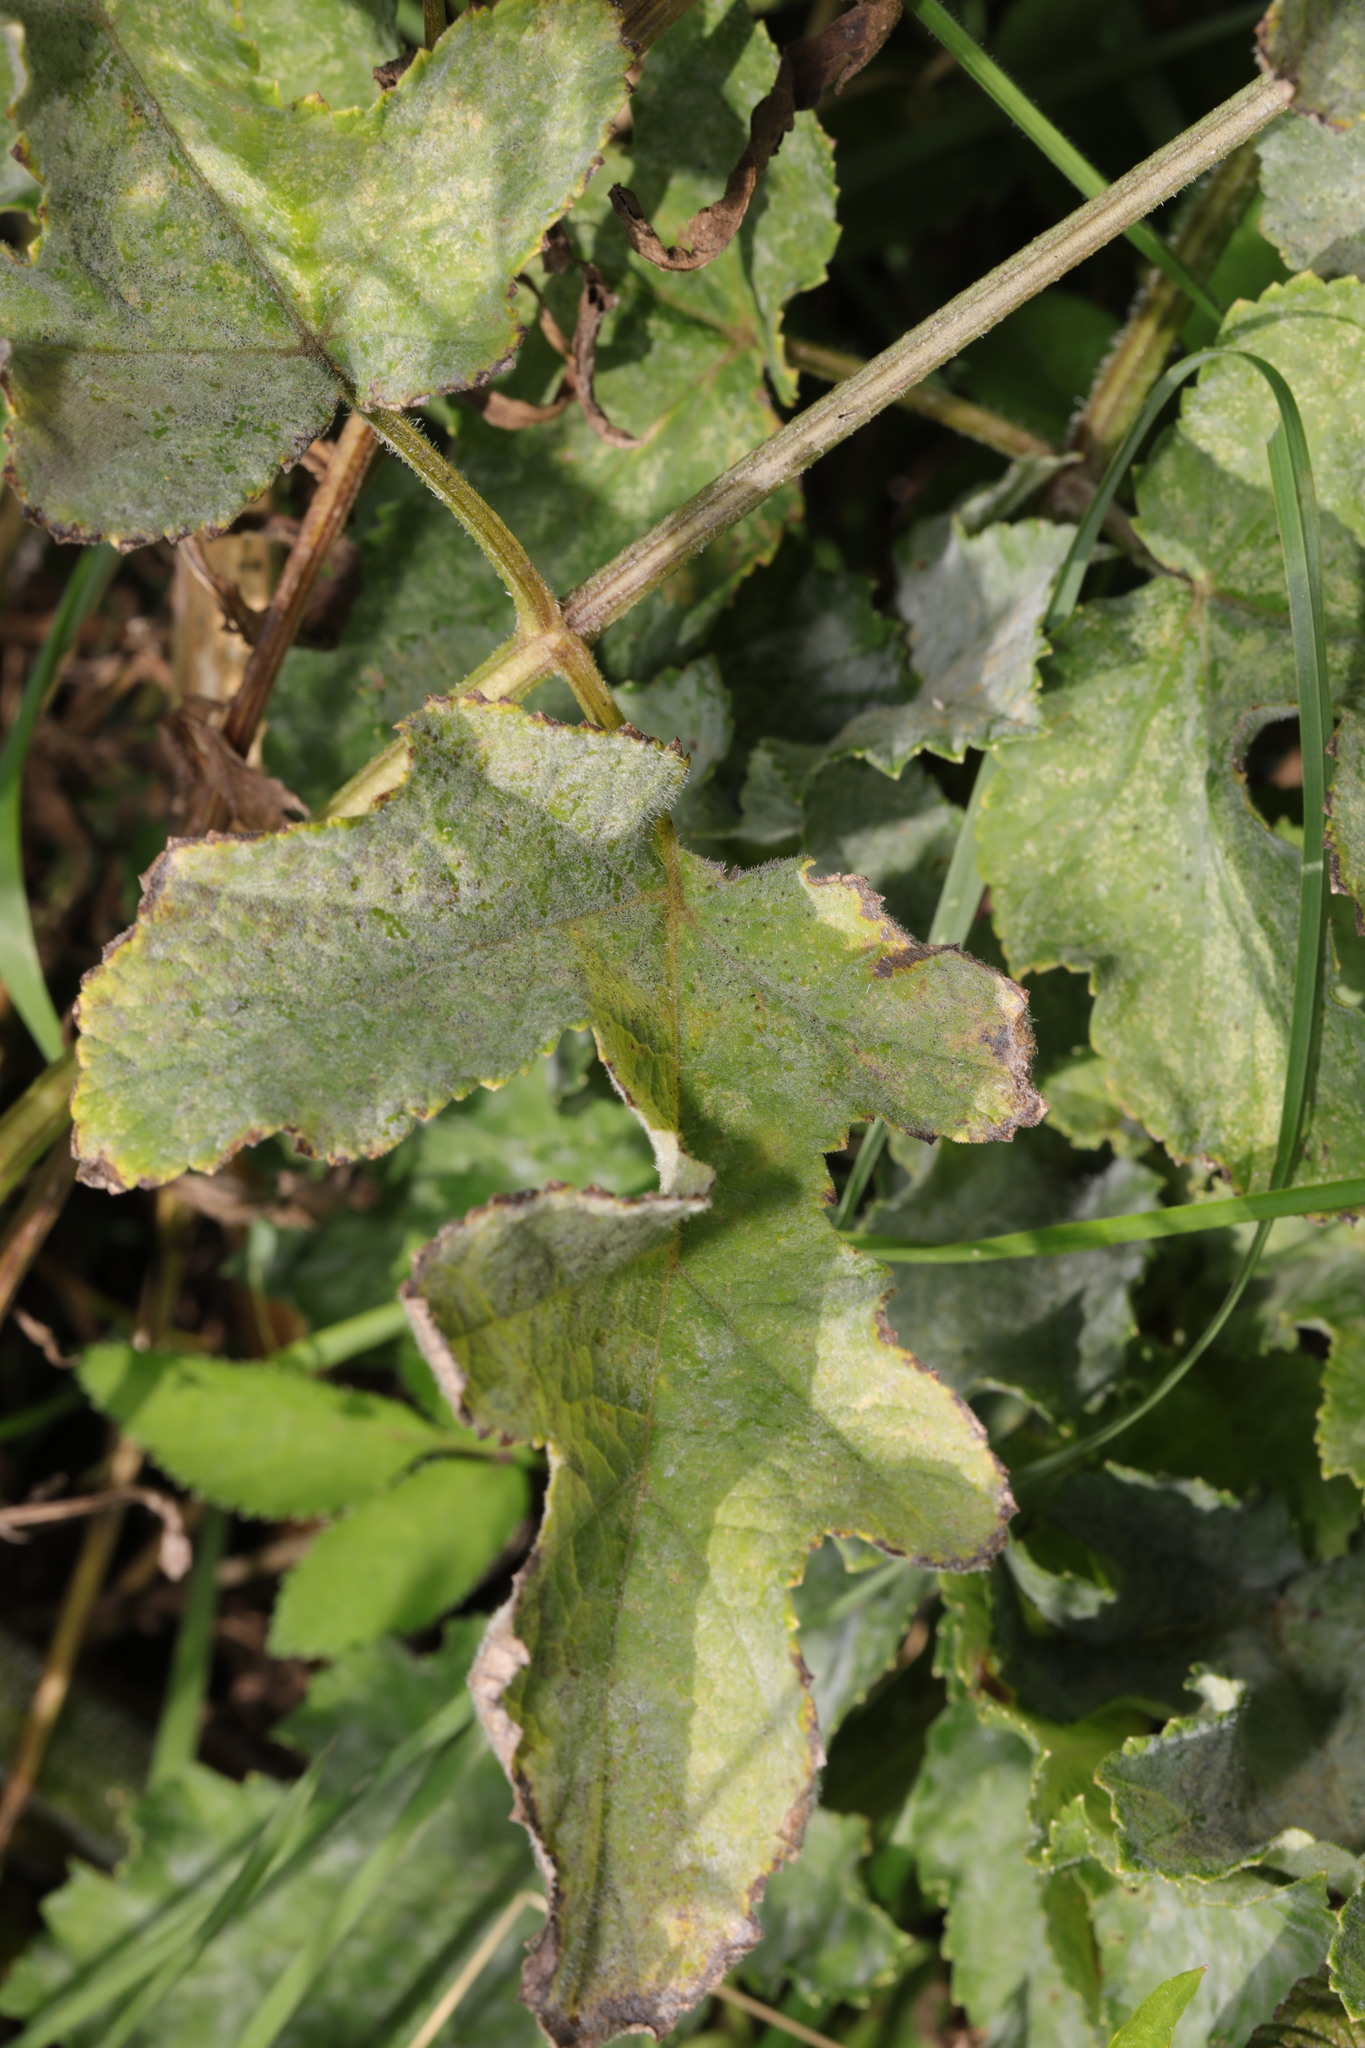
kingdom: Fungi
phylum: Ascomycota
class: Leotiomycetes
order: Helotiales
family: Erysiphaceae
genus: Erysiphe
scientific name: Erysiphe heraclei
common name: Umbellifer mildew
